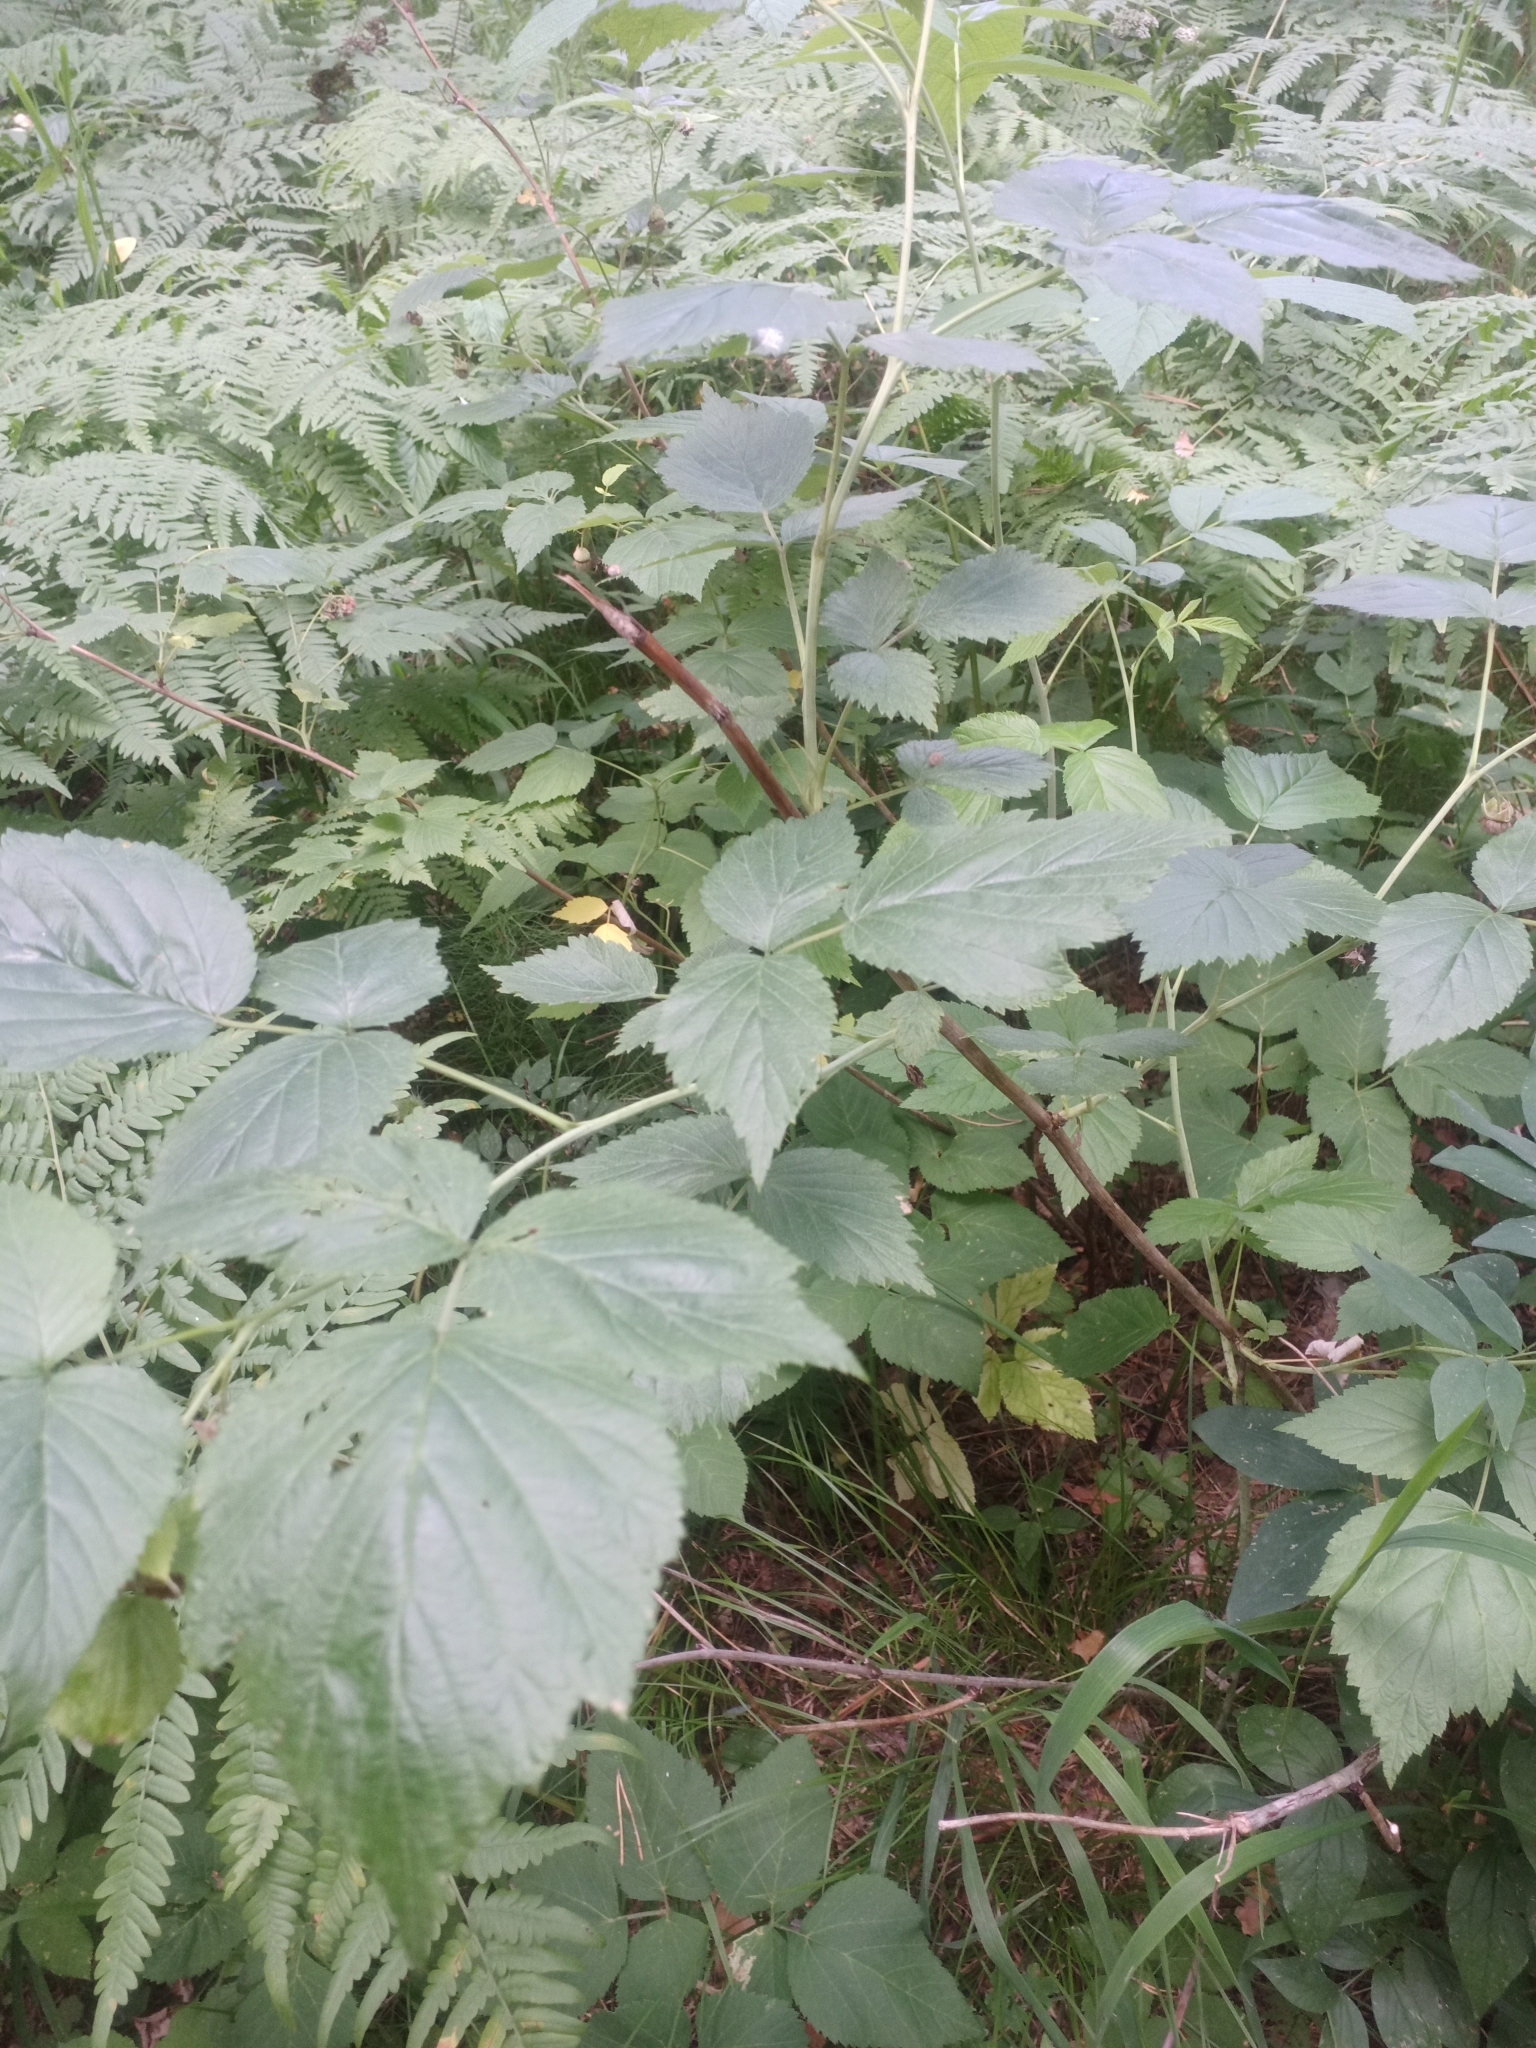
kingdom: Plantae
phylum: Tracheophyta
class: Magnoliopsida
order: Rosales
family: Rosaceae
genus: Rubus
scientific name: Rubus idaeus
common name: Raspberry
